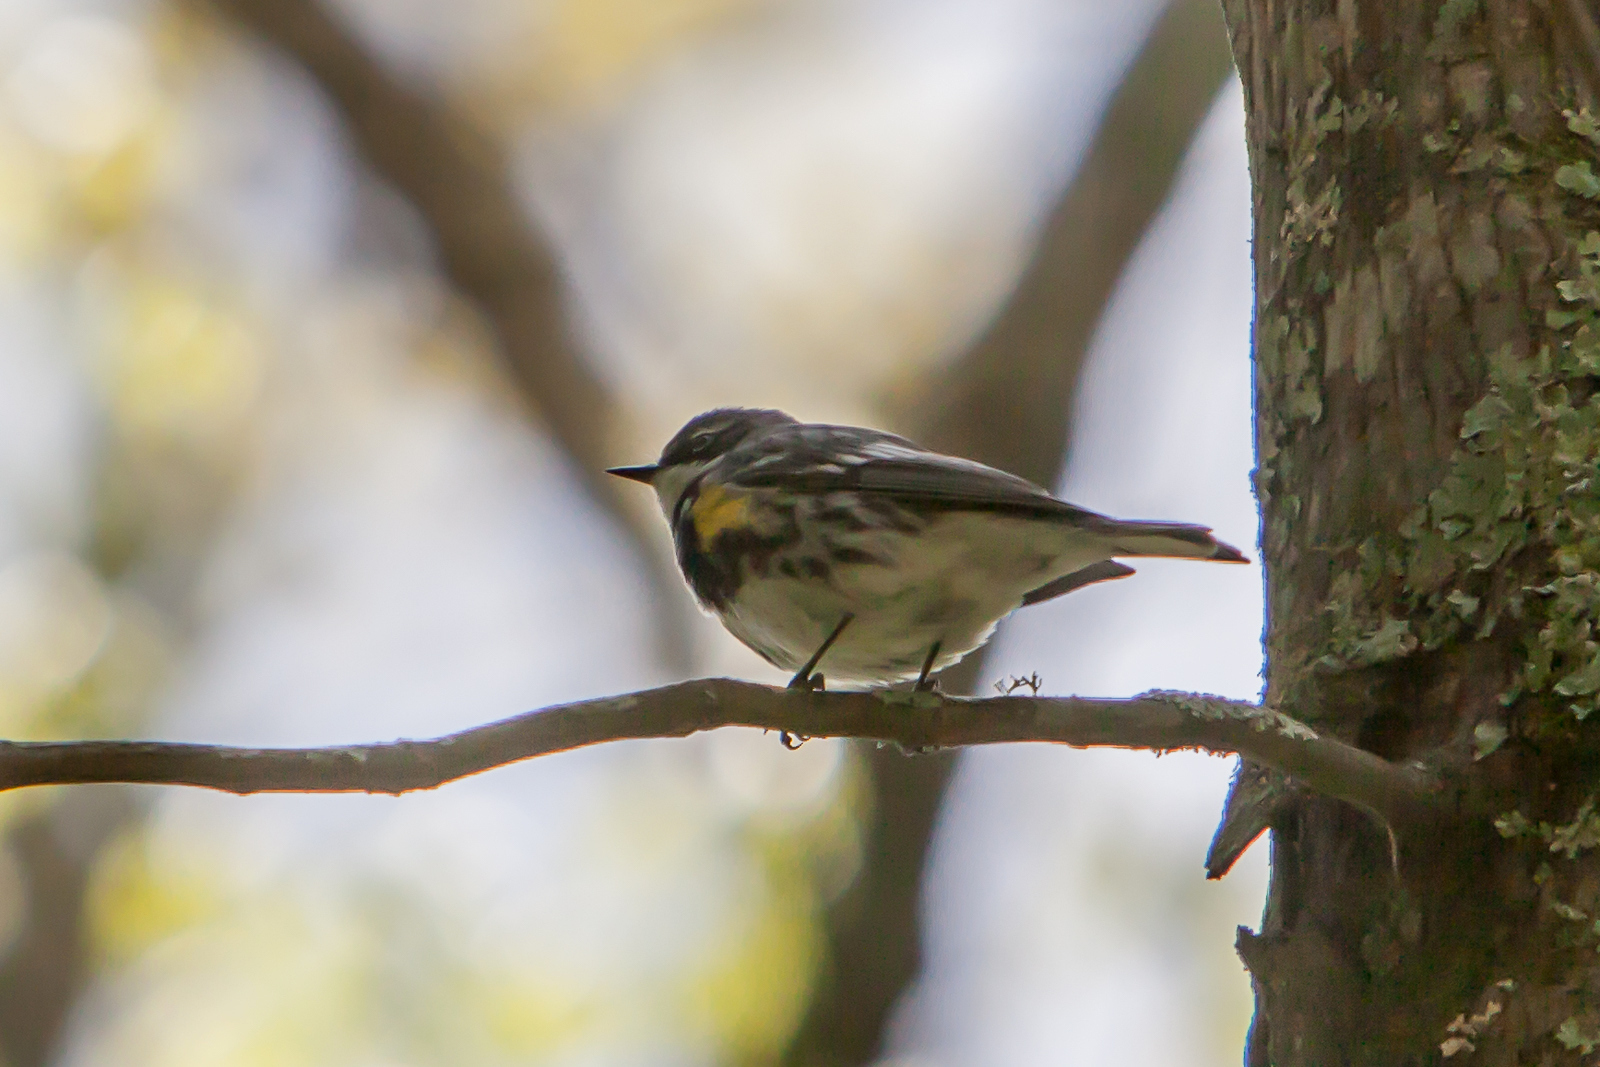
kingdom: Animalia
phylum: Chordata
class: Aves
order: Passeriformes
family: Parulidae
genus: Setophaga
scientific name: Setophaga coronata
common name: Myrtle warbler
